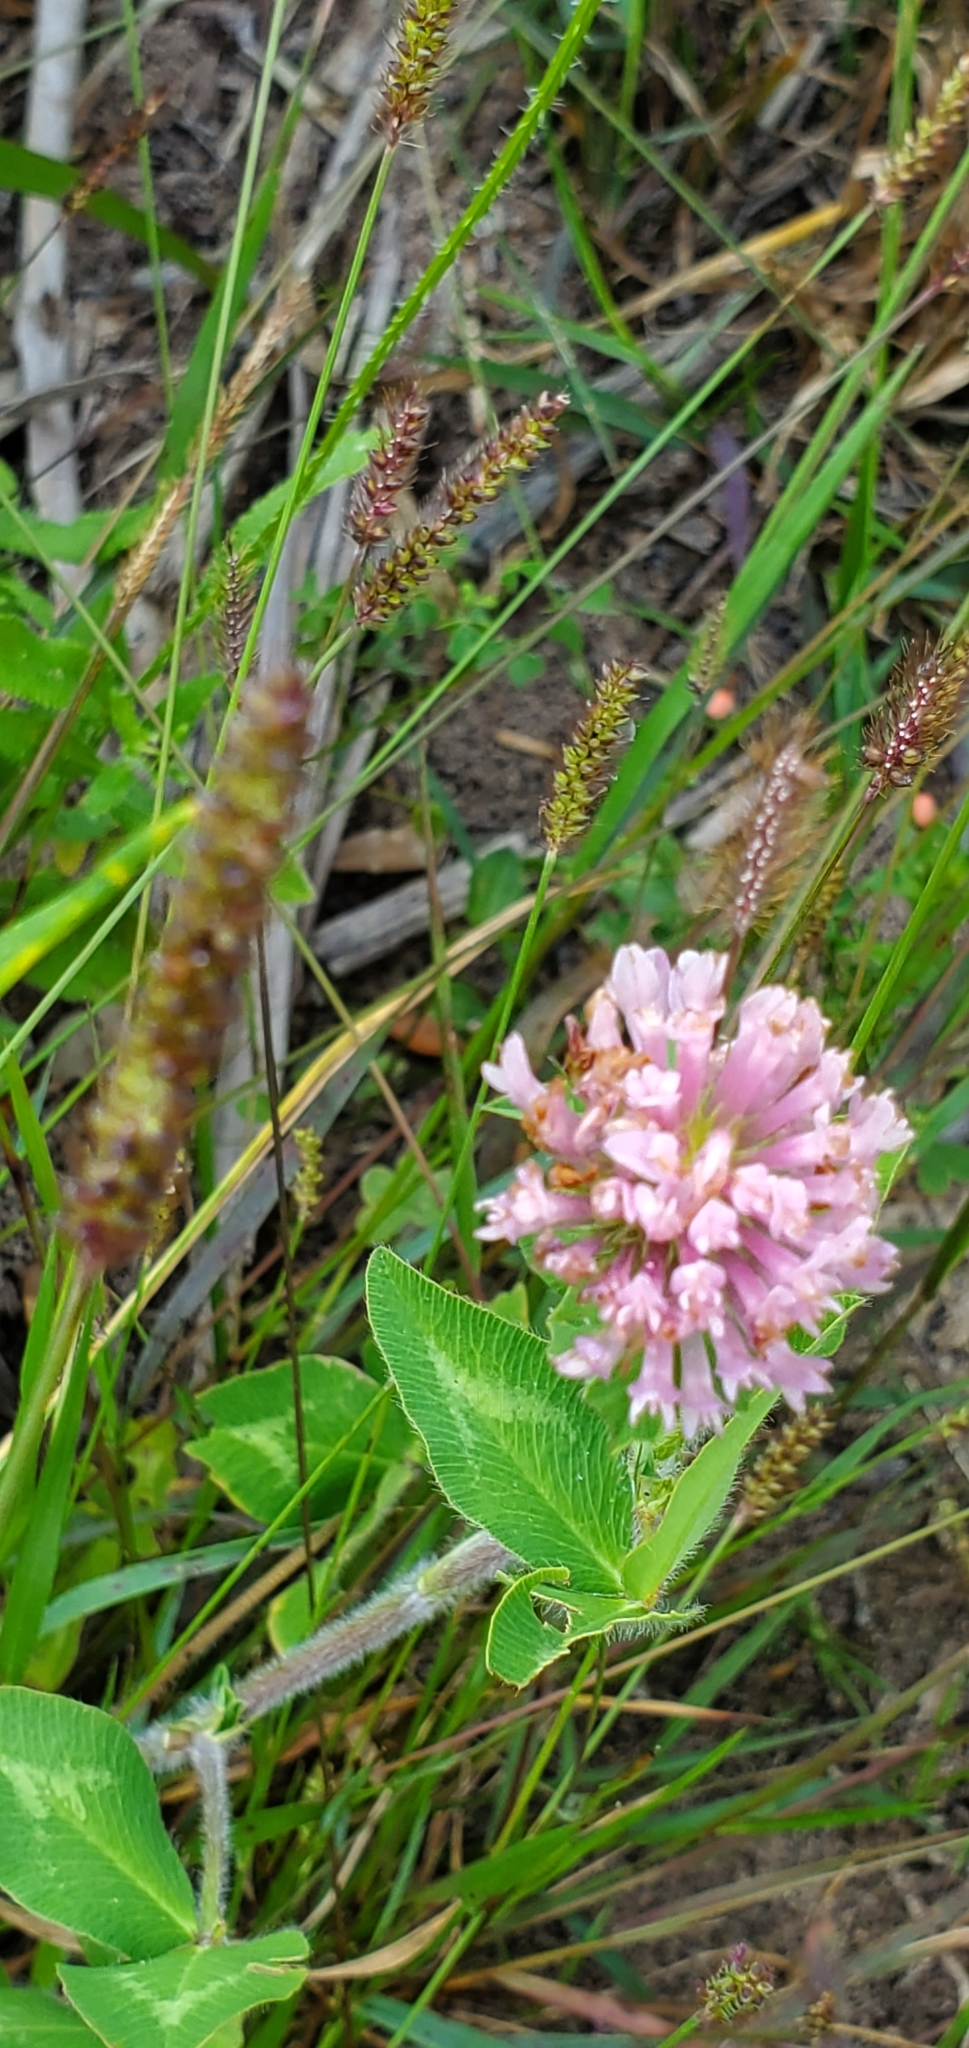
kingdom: Plantae
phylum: Tracheophyta
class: Magnoliopsida
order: Fabales
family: Fabaceae
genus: Trifolium
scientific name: Trifolium pratense
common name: Red clover
